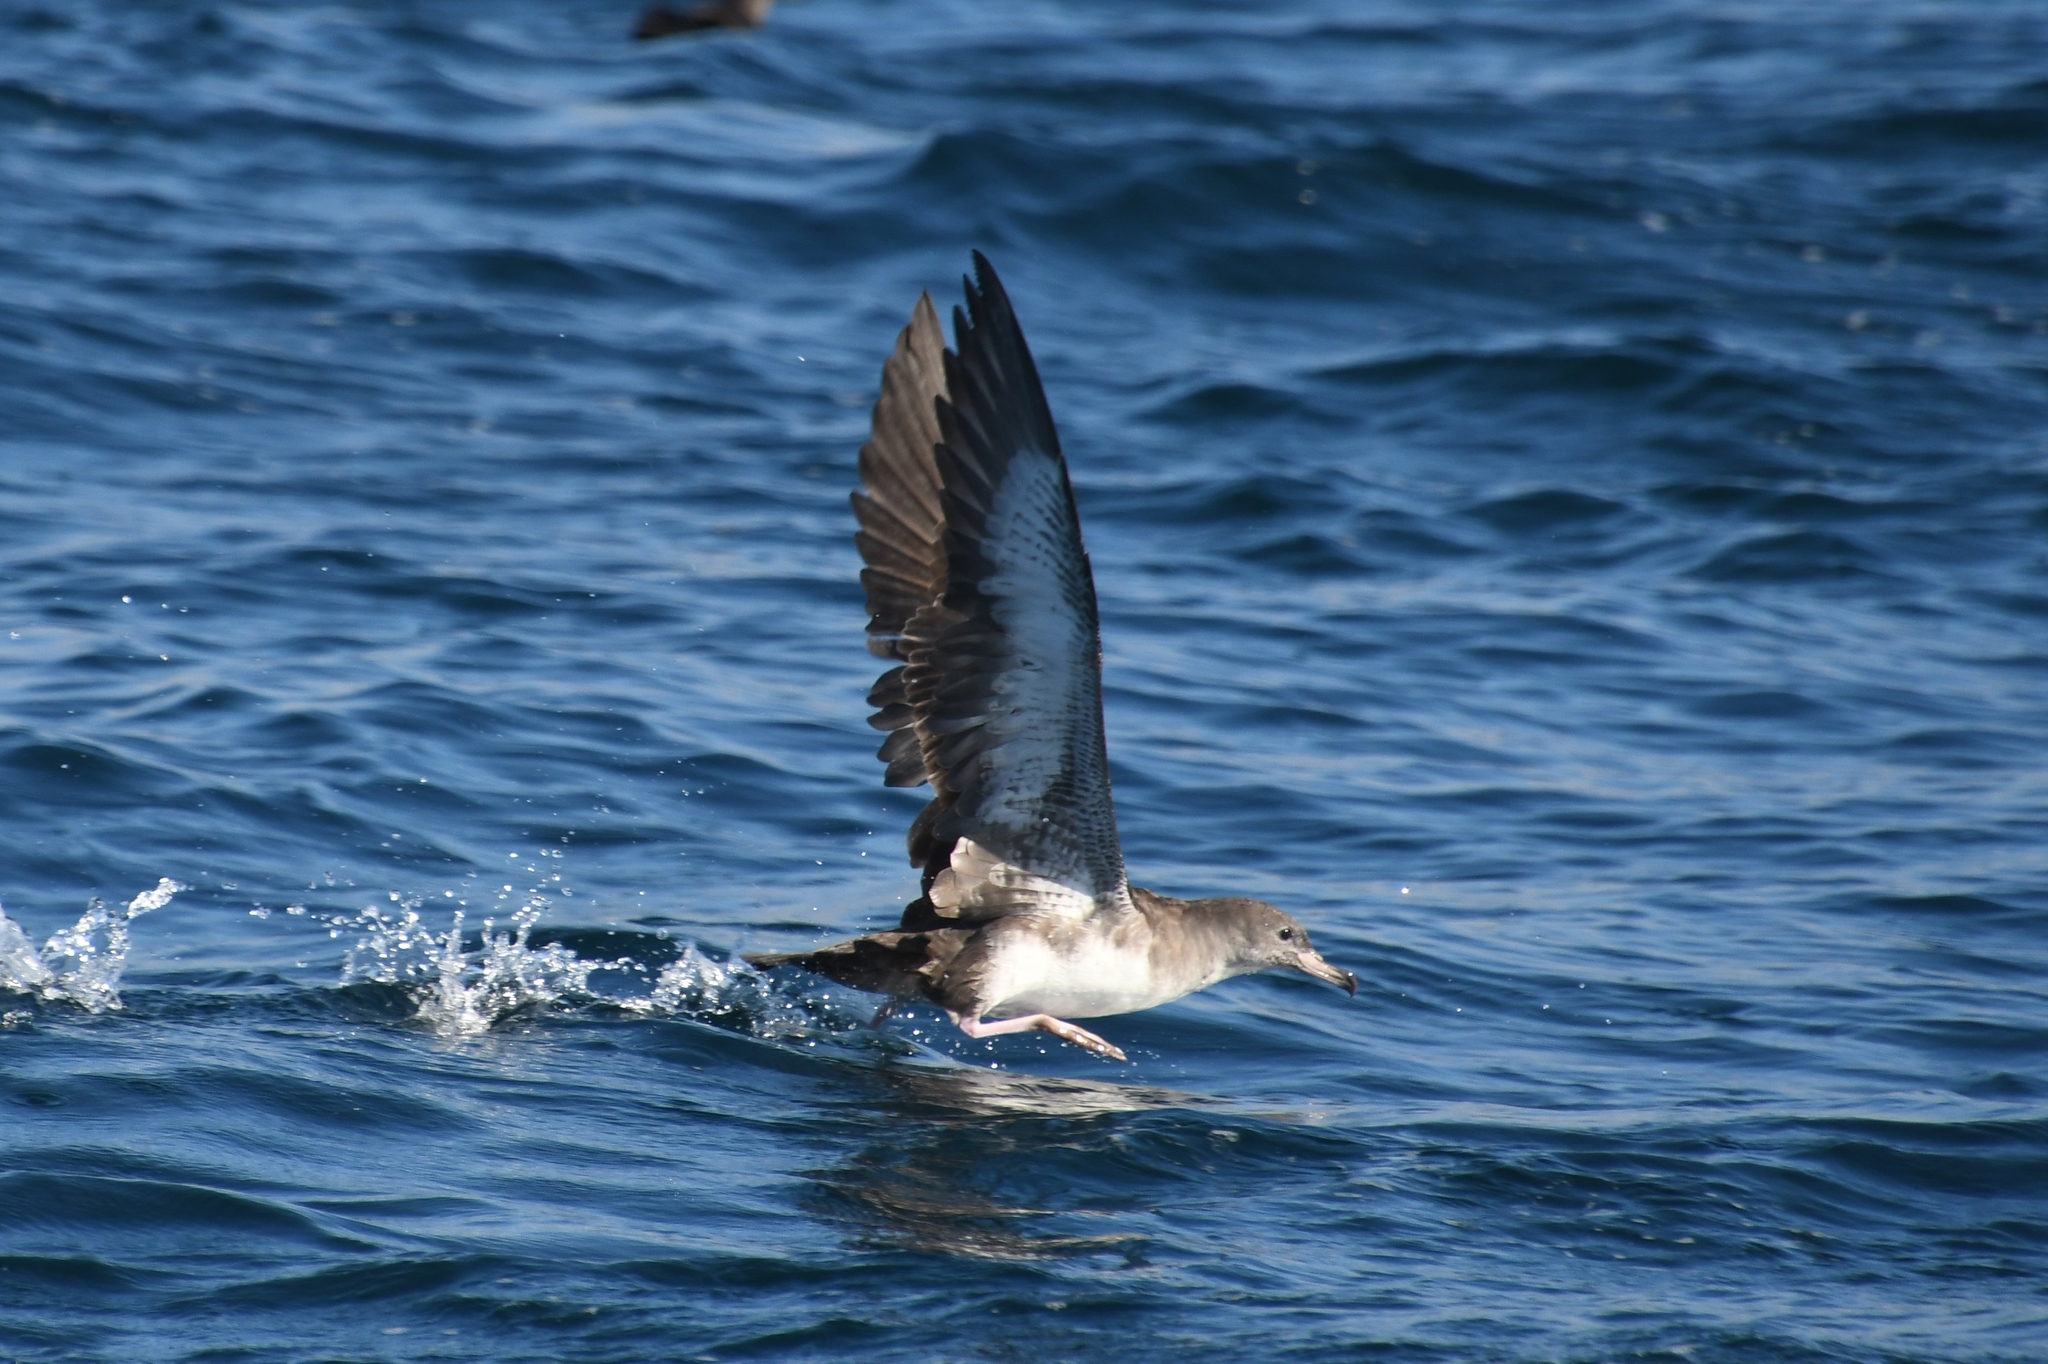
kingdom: Animalia
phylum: Chordata
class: Aves
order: Procellariiformes
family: Procellariidae
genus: Puffinus
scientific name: Puffinus creatopus
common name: Pink-footed shearwater
